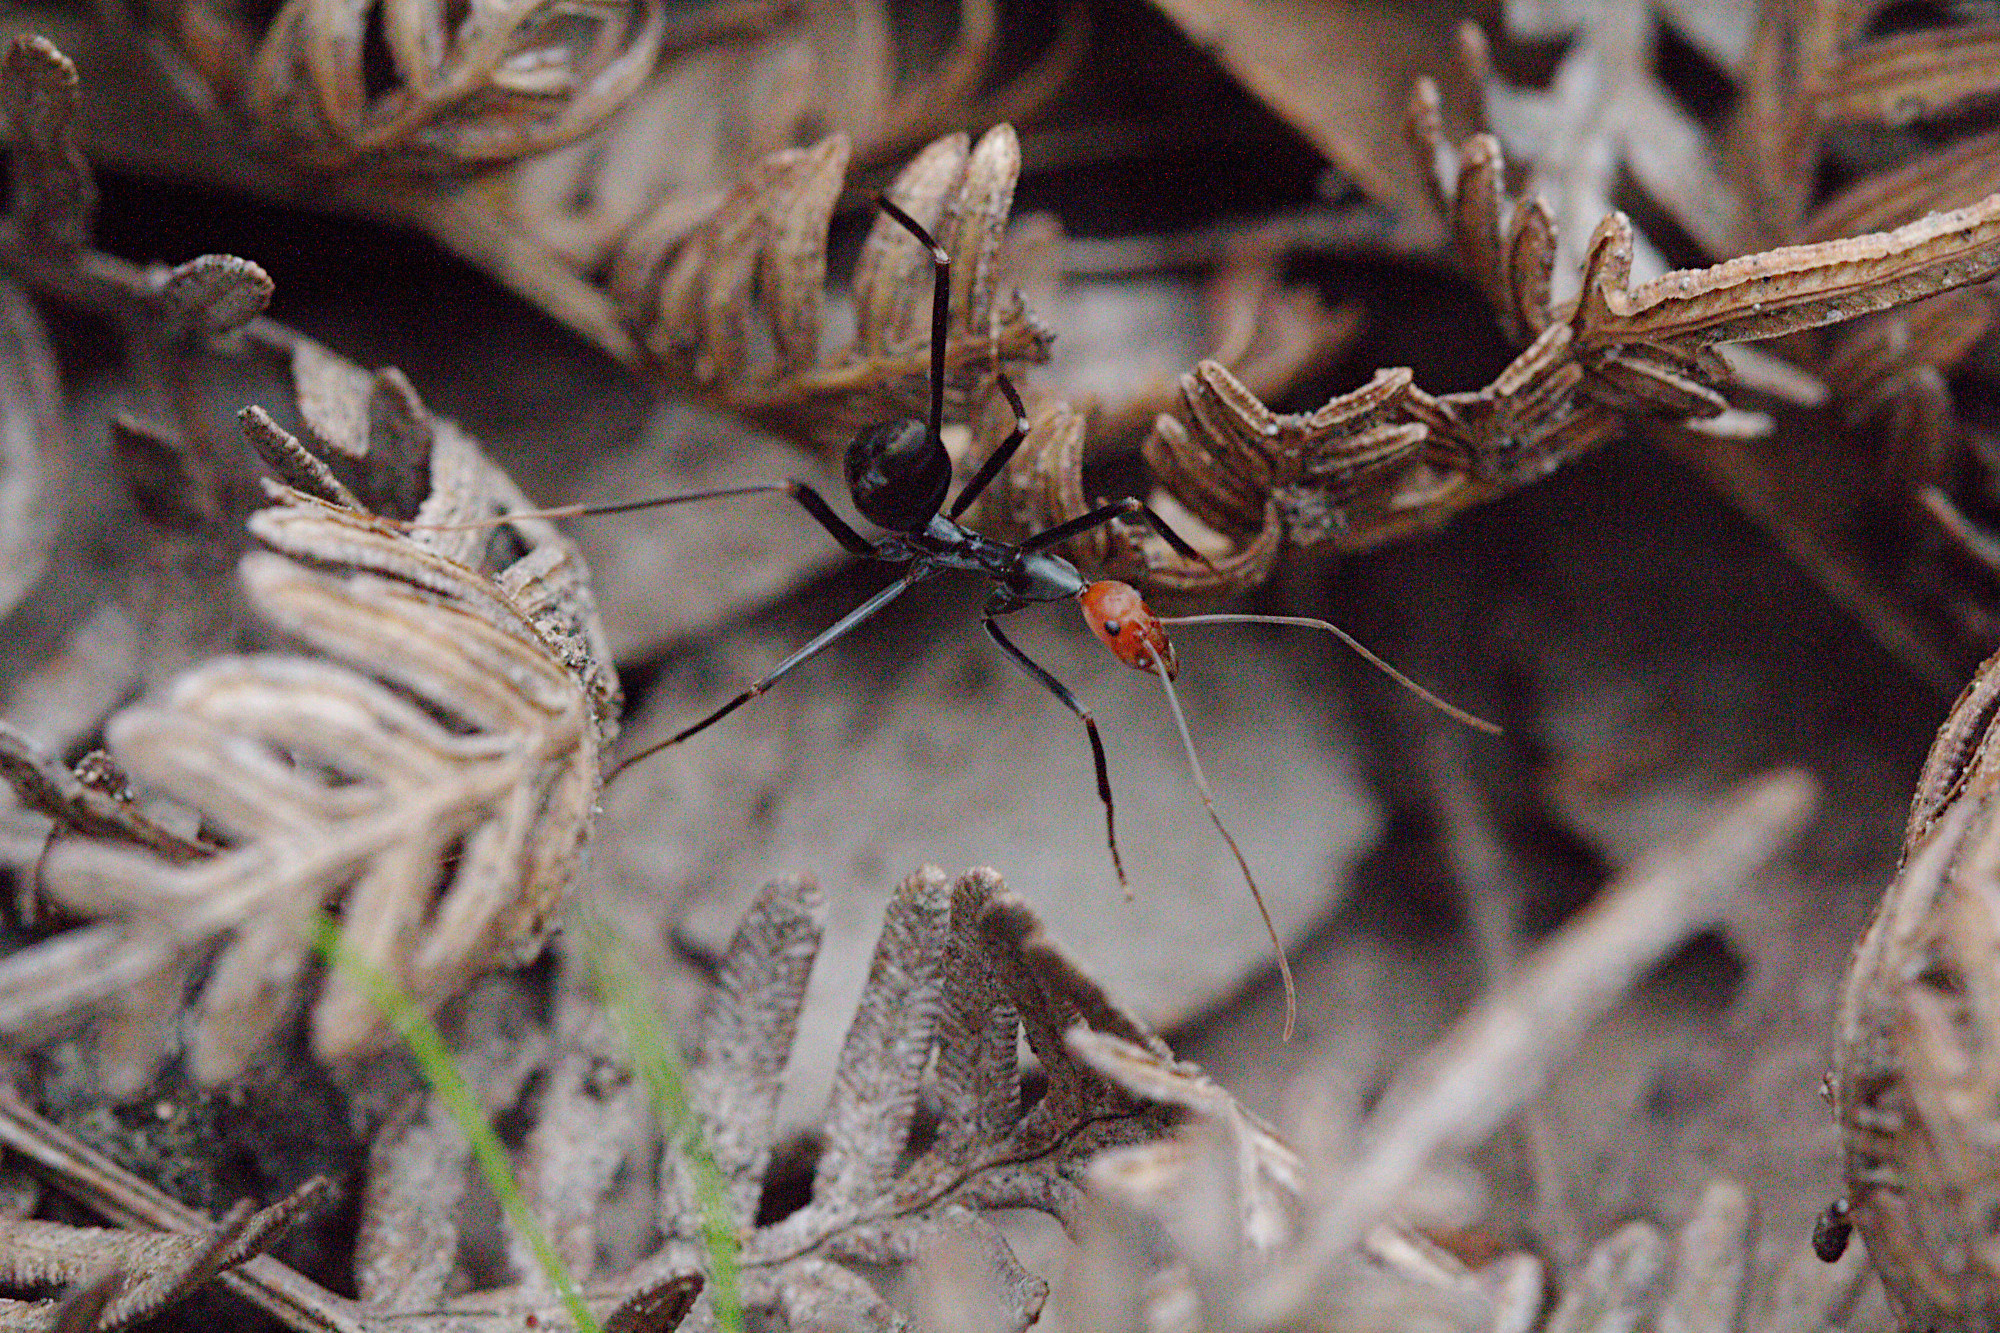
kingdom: Animalia
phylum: Arthropoda
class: Insecta
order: Hymenoptera
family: Formicidae
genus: Leptomyrmex
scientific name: Leptomyrmex erythrocephalus
